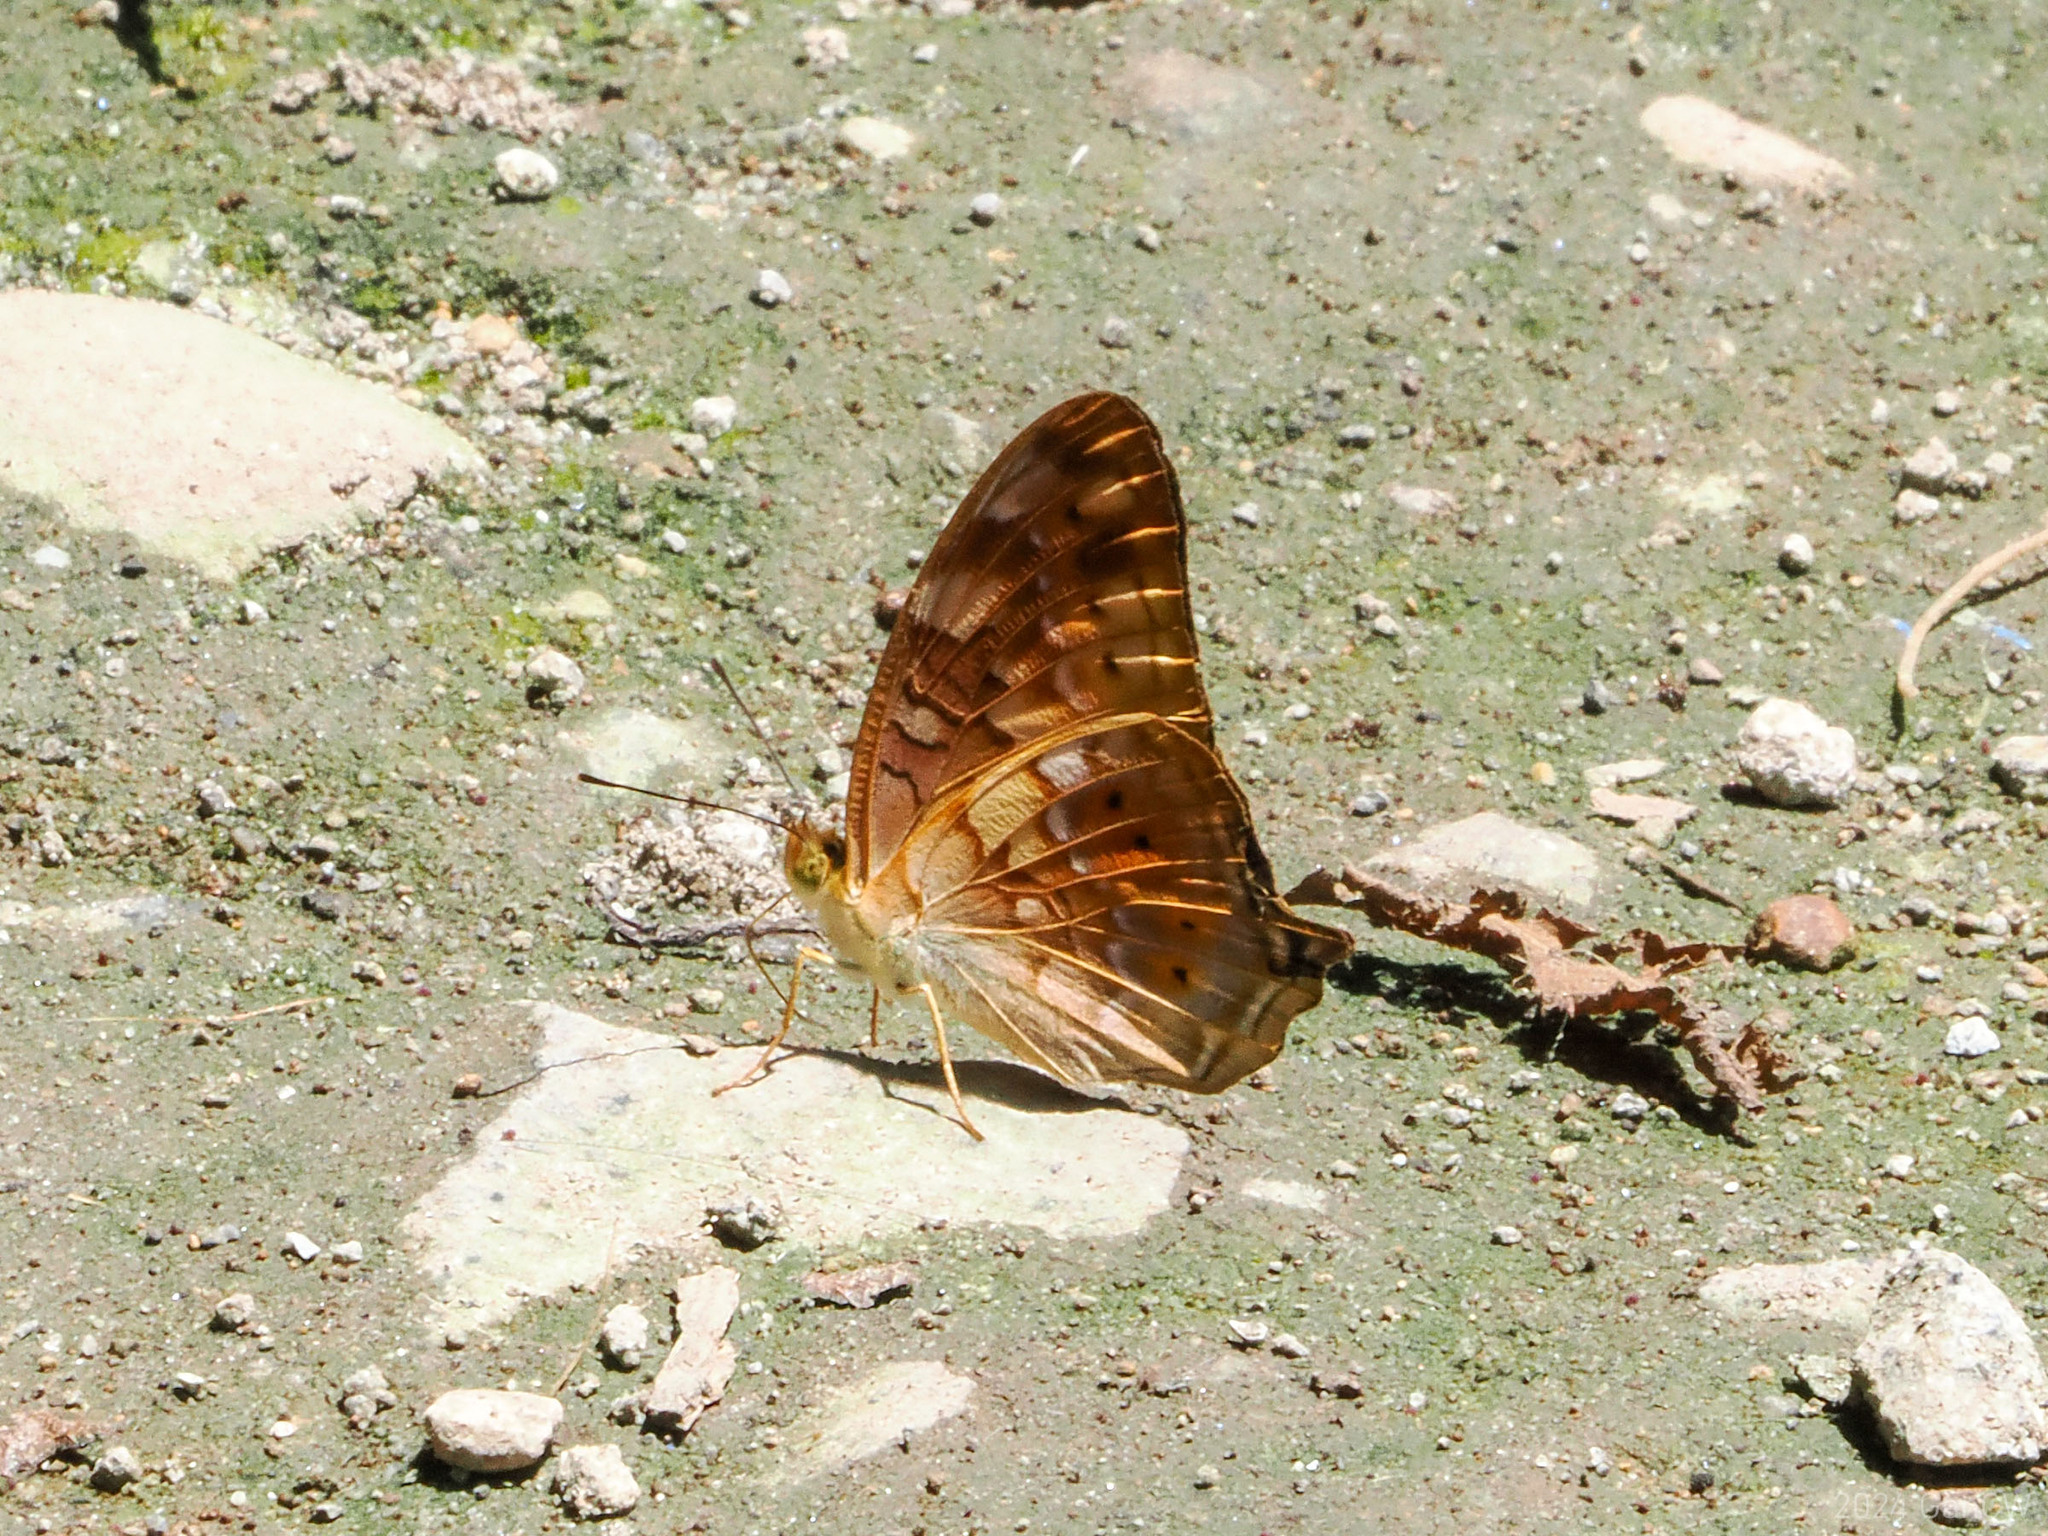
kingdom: Animalia
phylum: Arthropoda
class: Insecta
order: Lepidoptera
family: Nymphalidae
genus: Vagrans
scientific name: Vagrans sinha
